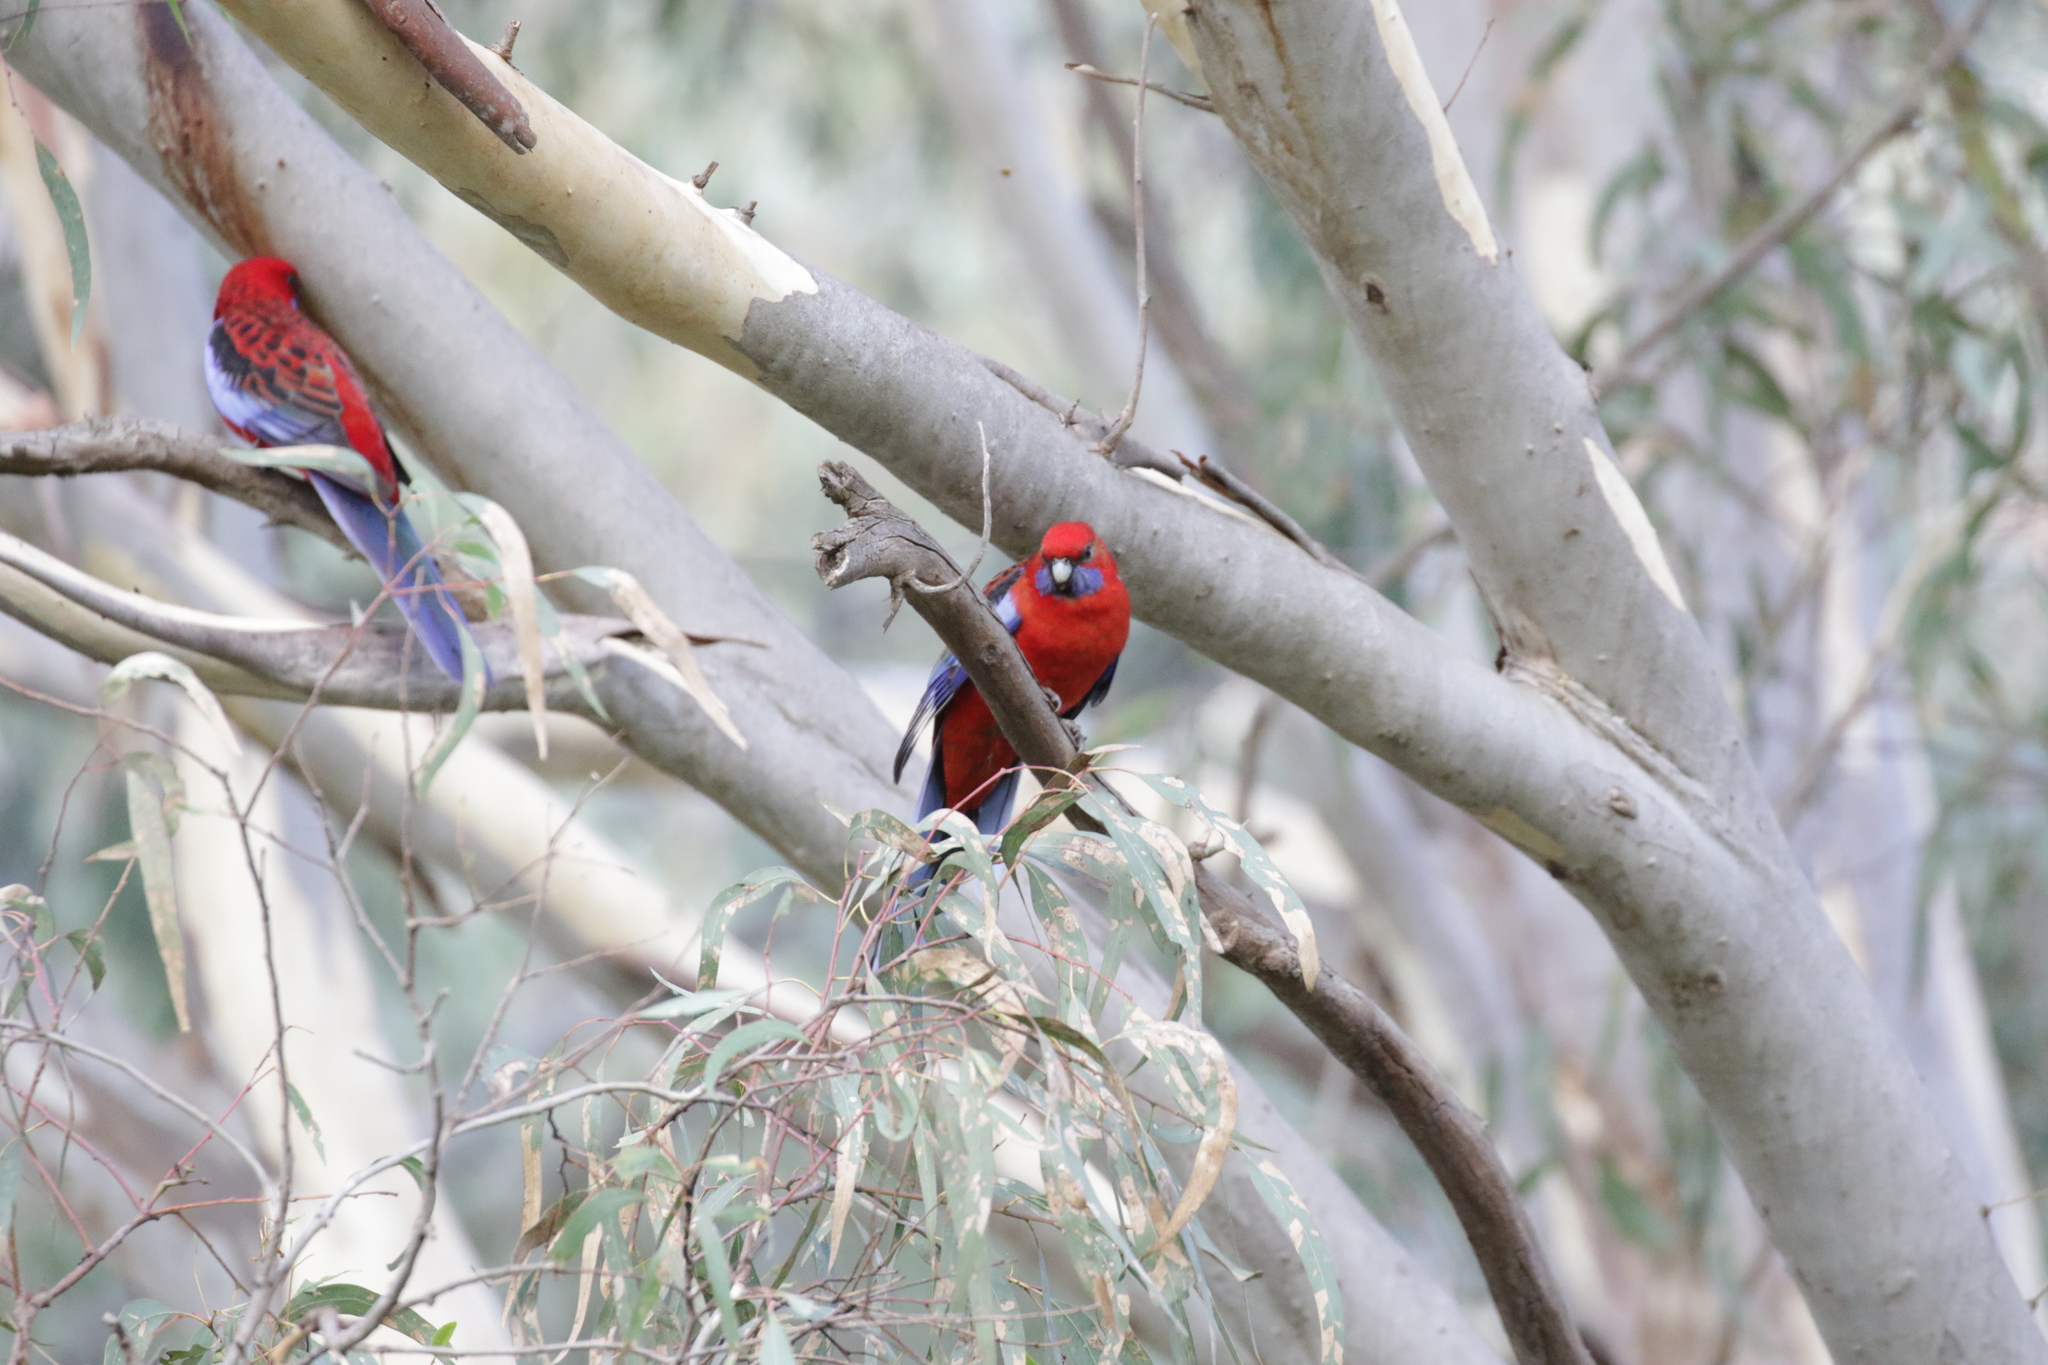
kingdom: Animalia
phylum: Chordata
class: Aves
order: Psittaciformes
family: Psittacidae
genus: Platycercus
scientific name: Platycercus elegans
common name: Crimson rosella
